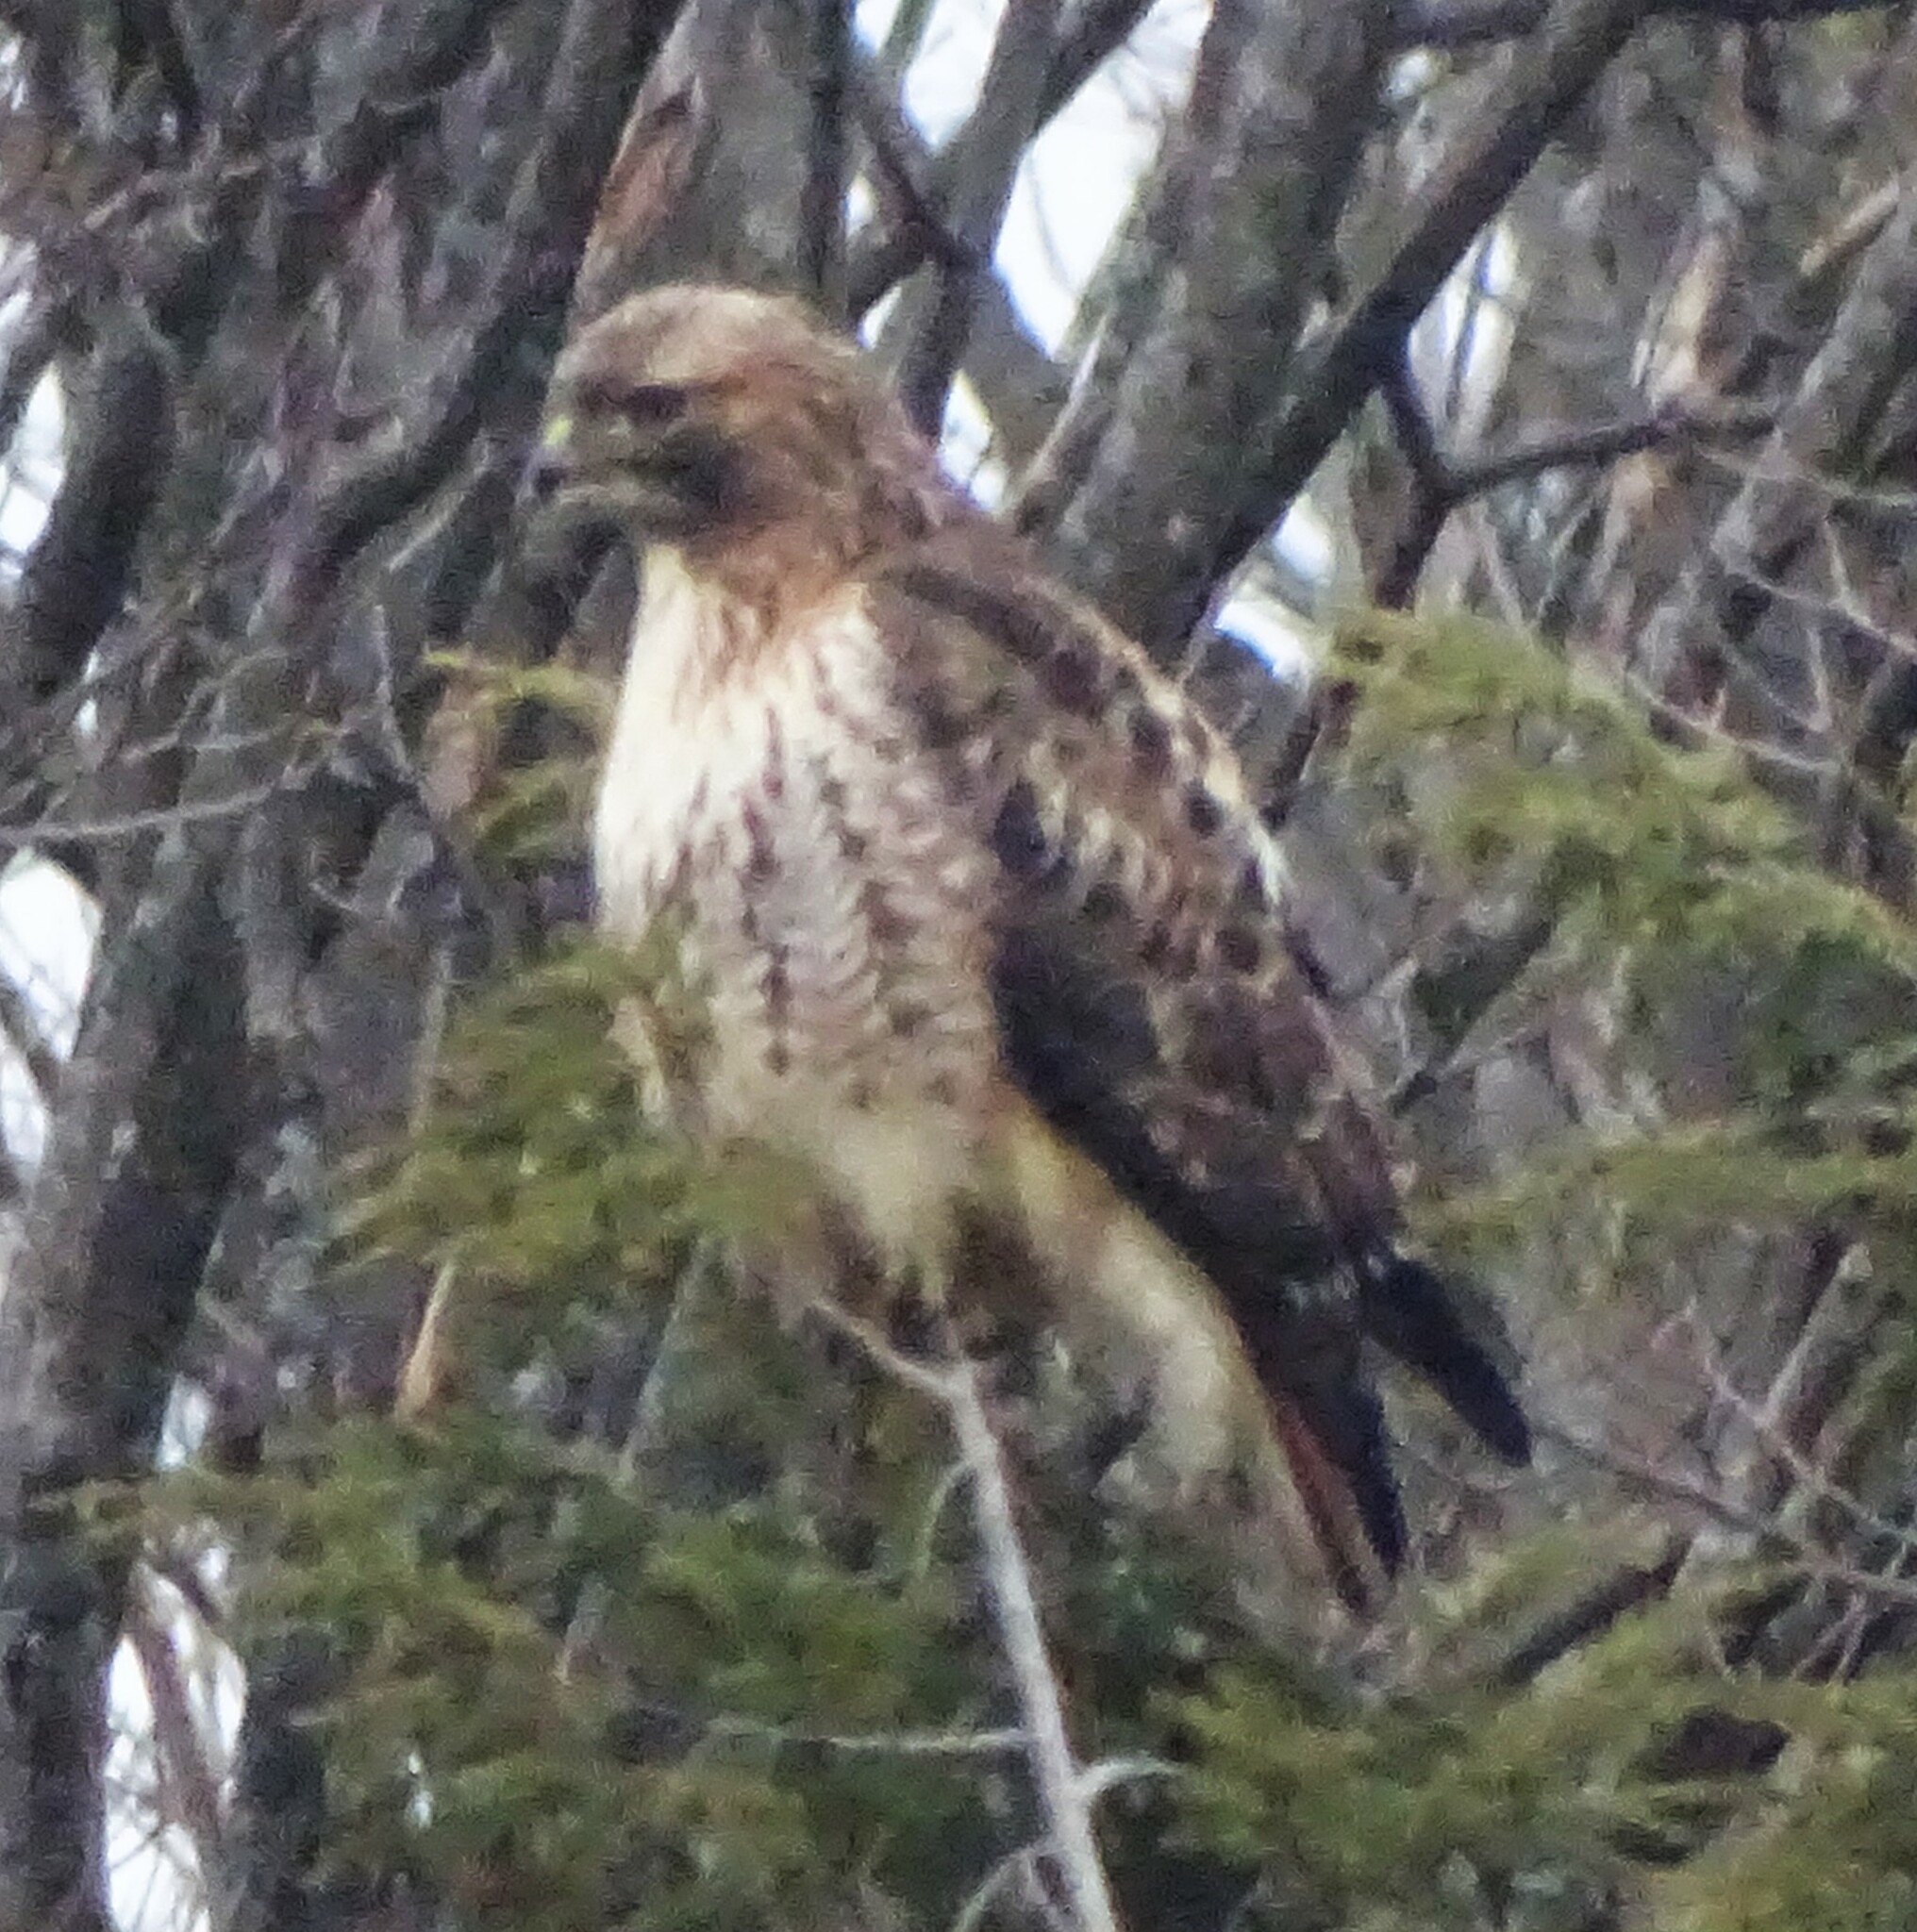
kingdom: Animalia
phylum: Chordata
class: Aves
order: Accipitriformes
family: Accipitridae
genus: Buteo
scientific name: Buteo jamaicensis
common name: Red-tailed hawk
